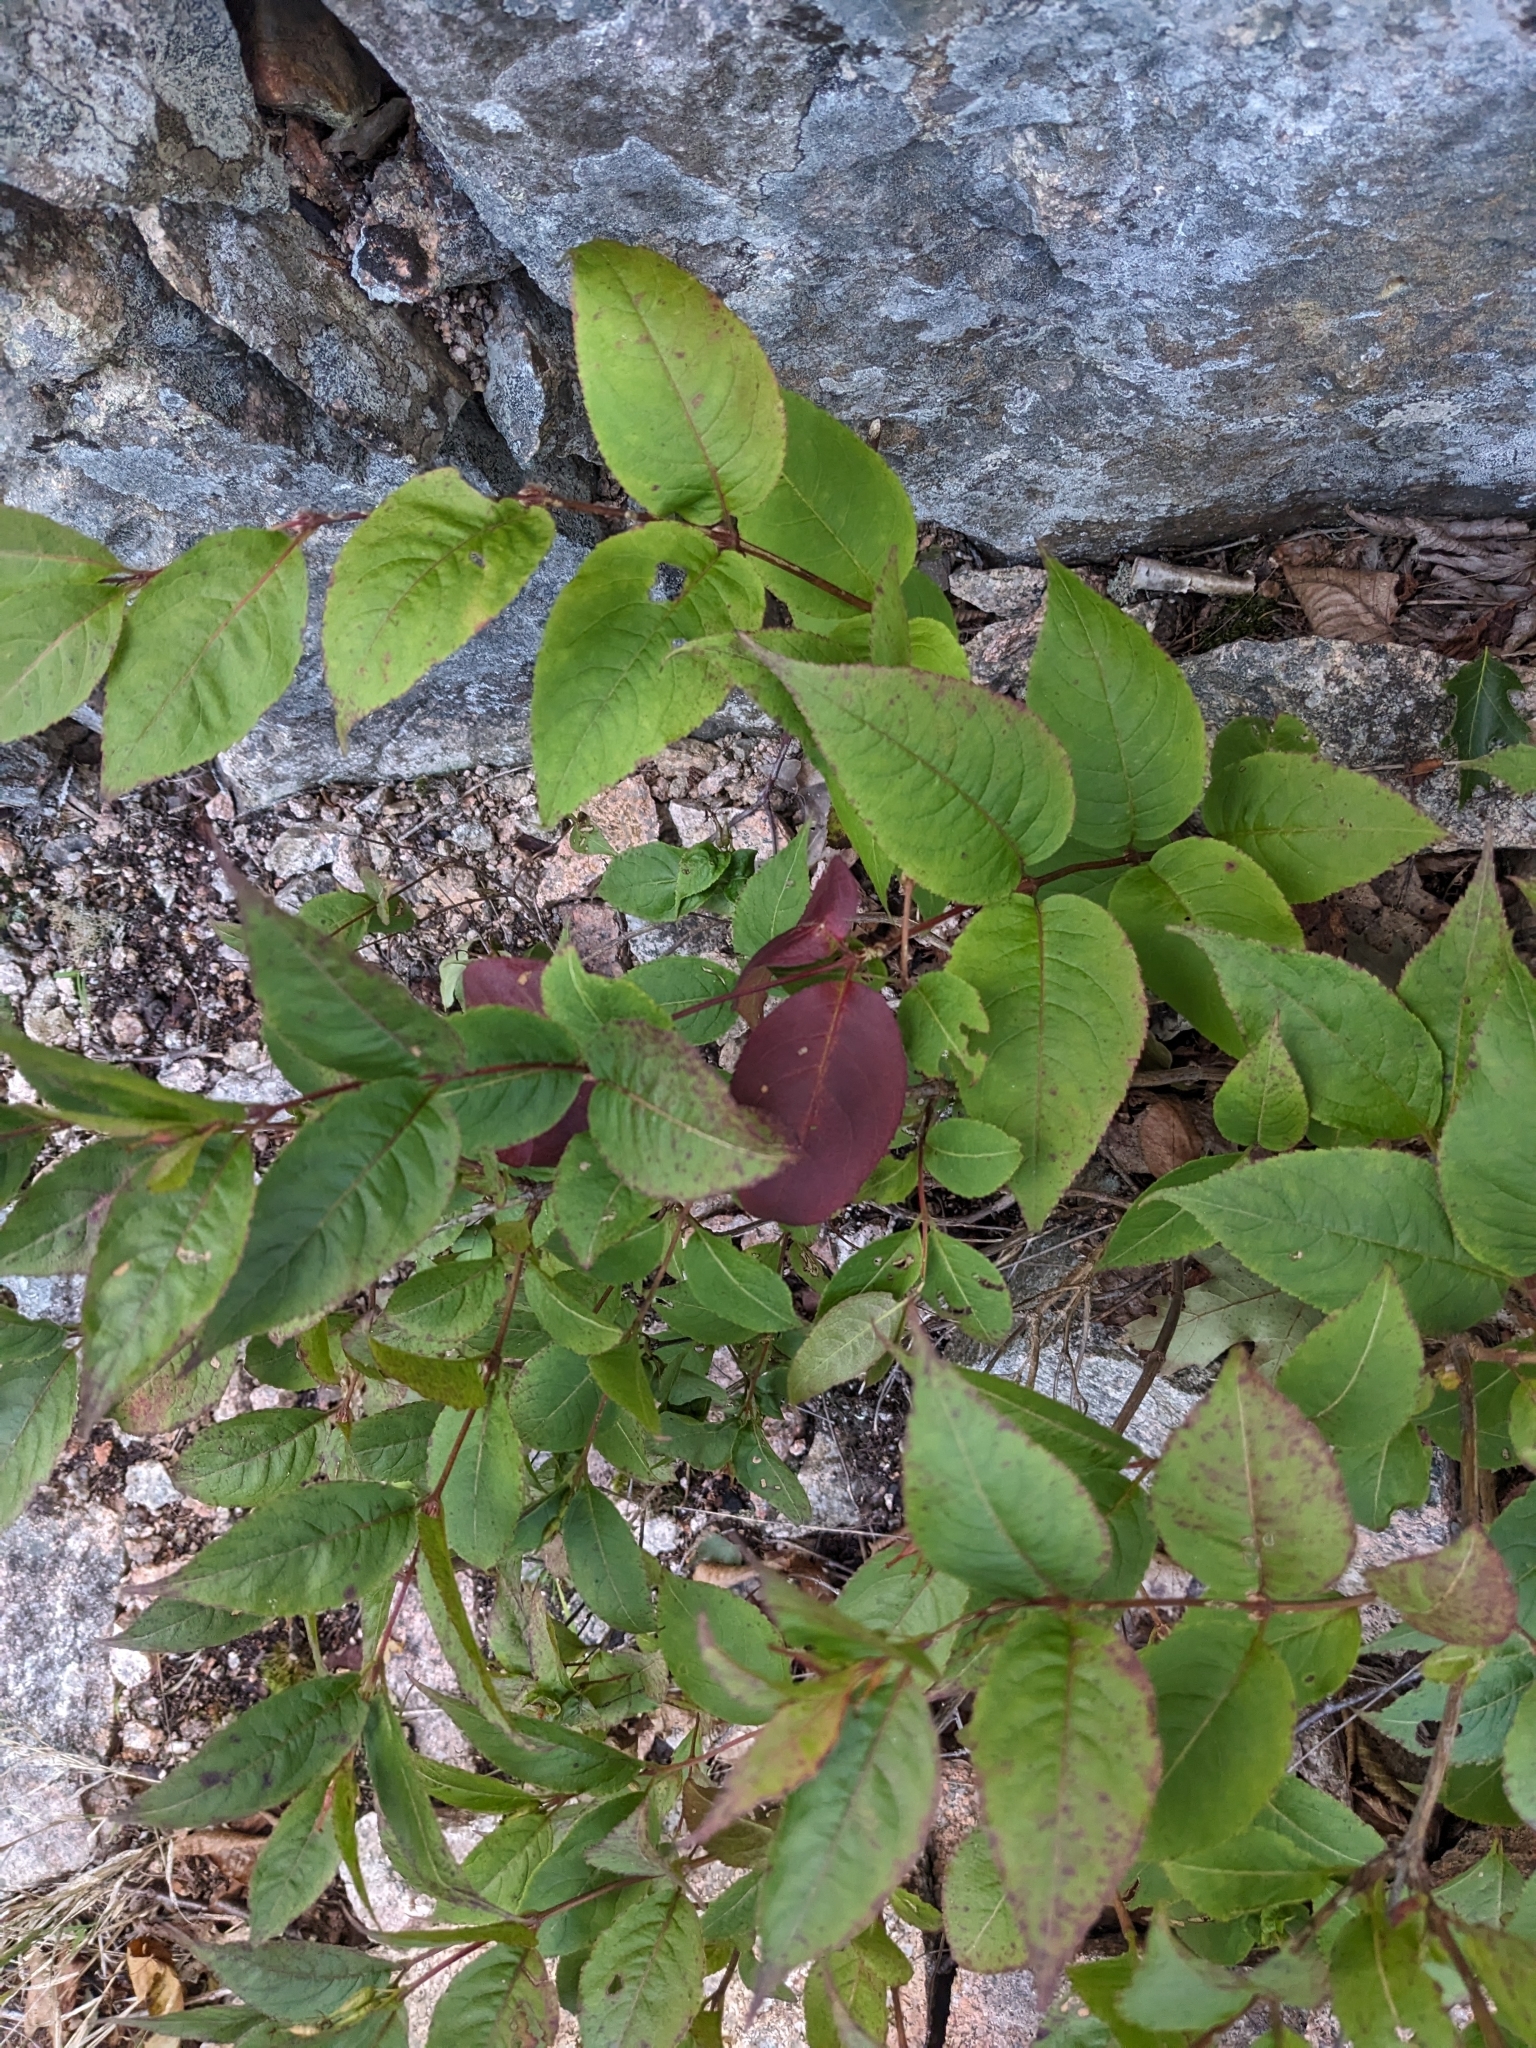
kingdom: Plantae
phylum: Tracheophyta
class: Magnoliopsida
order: Dipsacales
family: Caprifoliaceae
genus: Diervilla
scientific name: Diervilla lonicera
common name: Bush-honeysuckle
